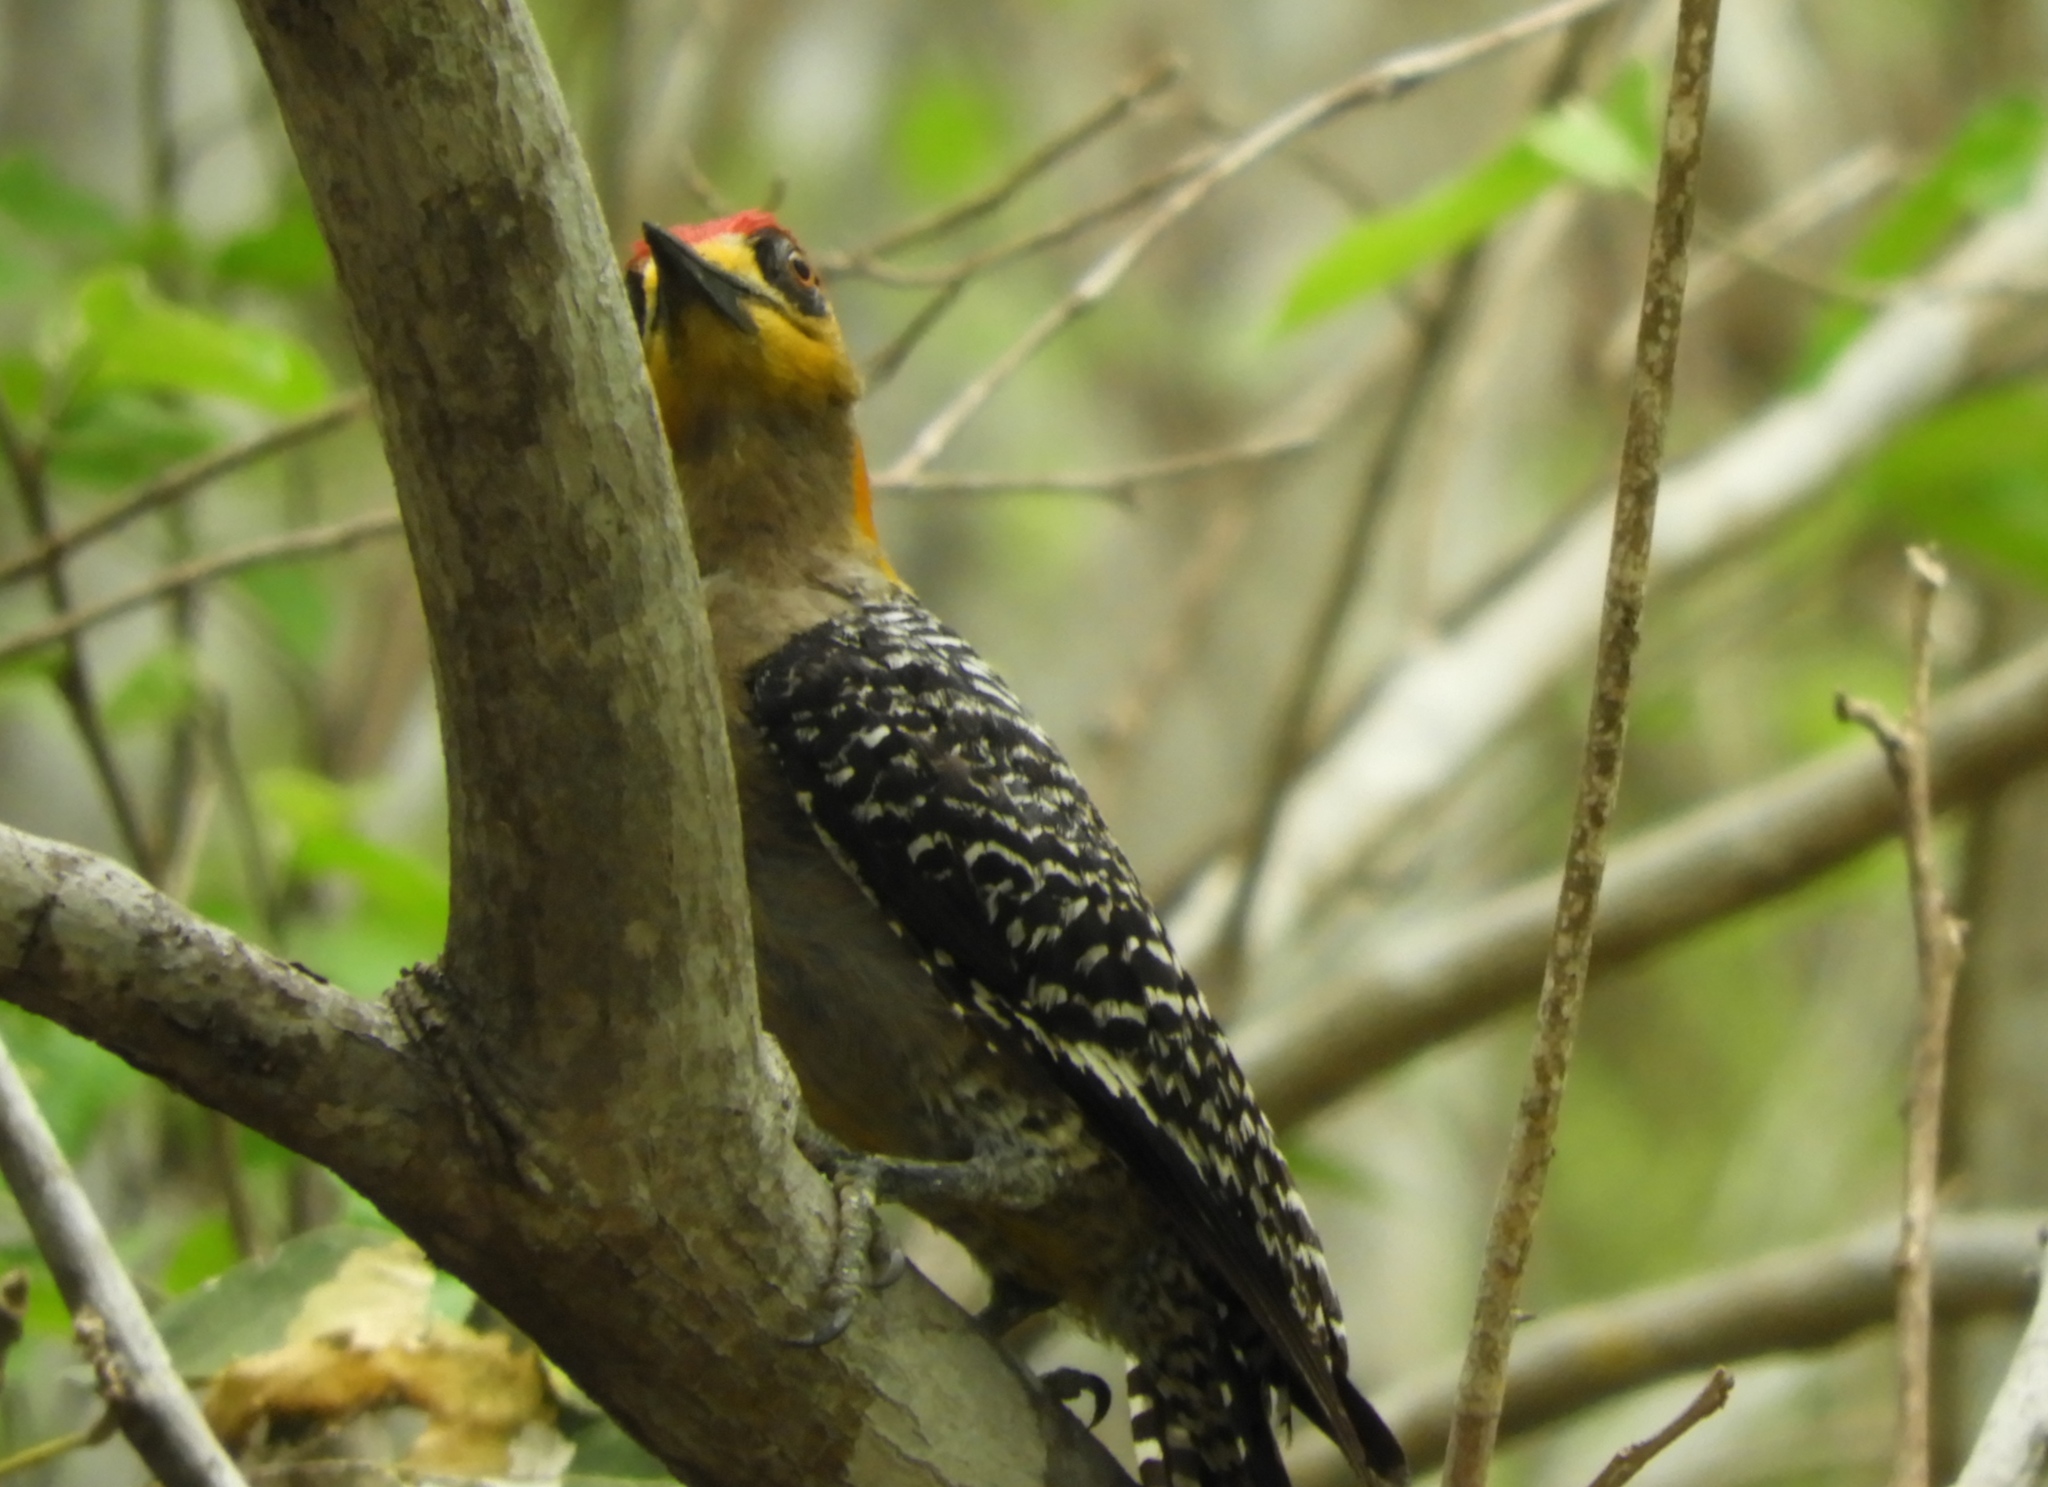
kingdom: Animalia
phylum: Chordata
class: Aves
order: Piciformes
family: Picidae
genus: Melanerpes
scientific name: Melanerpes chrysogenys
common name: Golden-cheeked woodpecker
